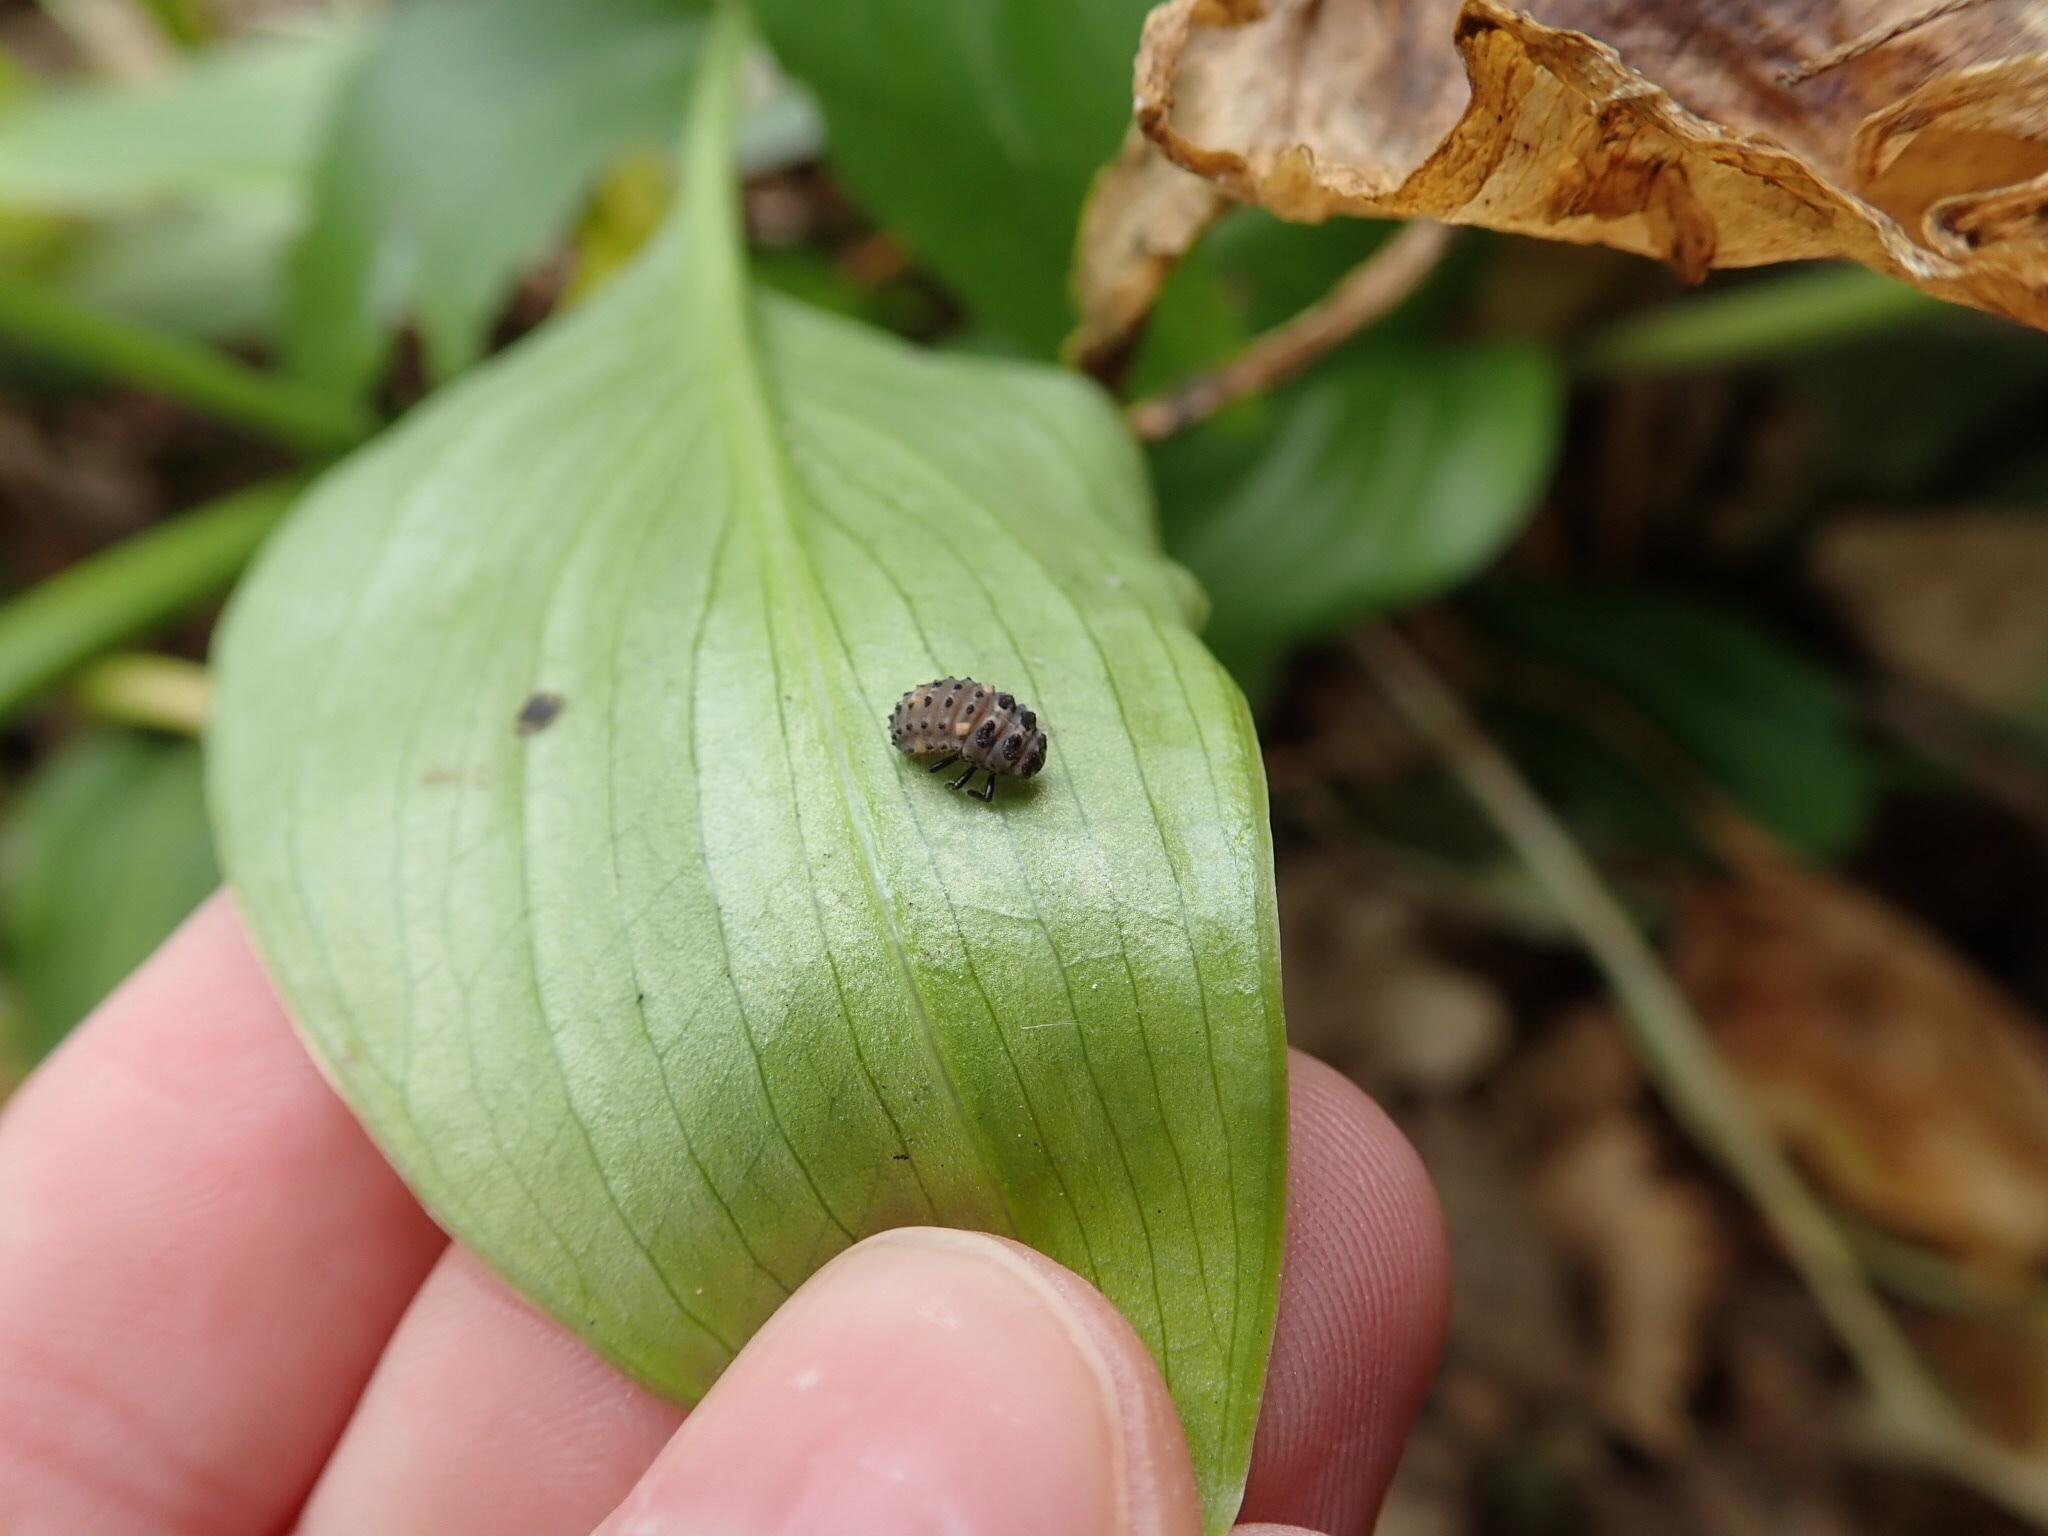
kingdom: Animalia
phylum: Arthropoda
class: Insecta
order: Coleoptera
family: Coccinellidae
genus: Adalia
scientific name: Adalia bipunctata
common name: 2-spot ladybird
